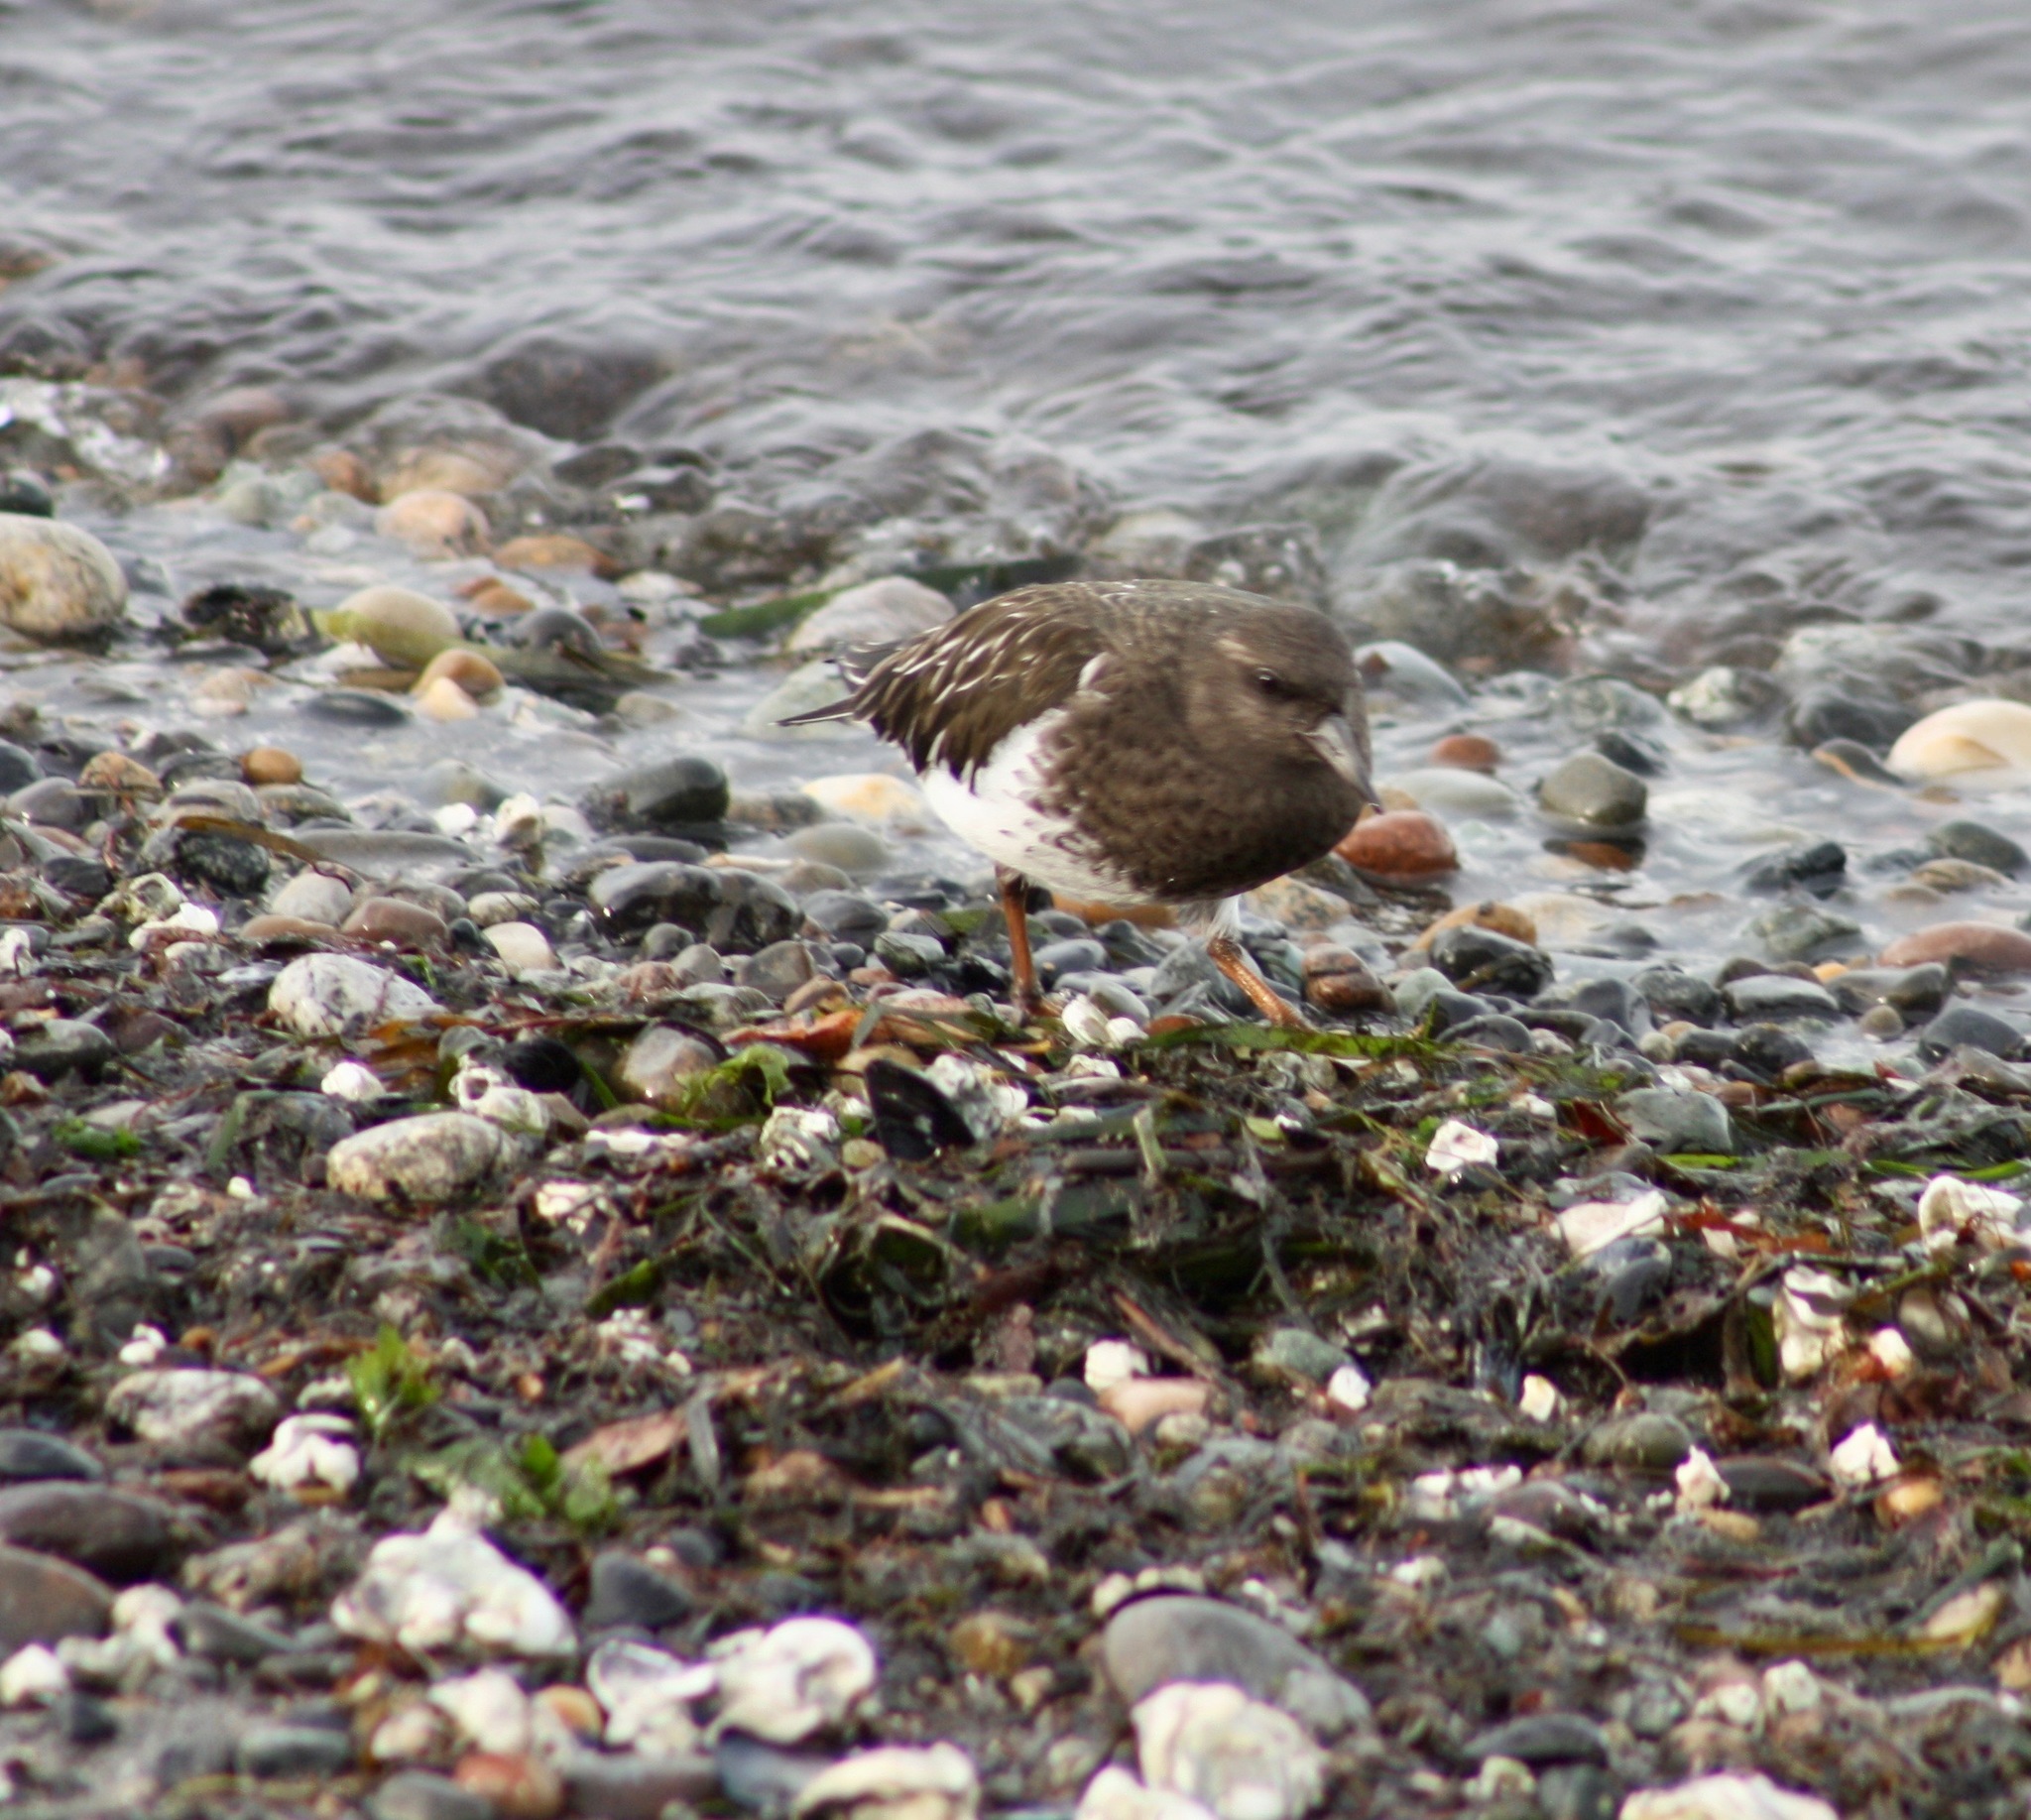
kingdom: Animalia
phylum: Chordata
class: Aves
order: Charadriiformes
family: Scolopacidae
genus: Arenaria
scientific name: Arenaria melanocephala
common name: Black turnstone
